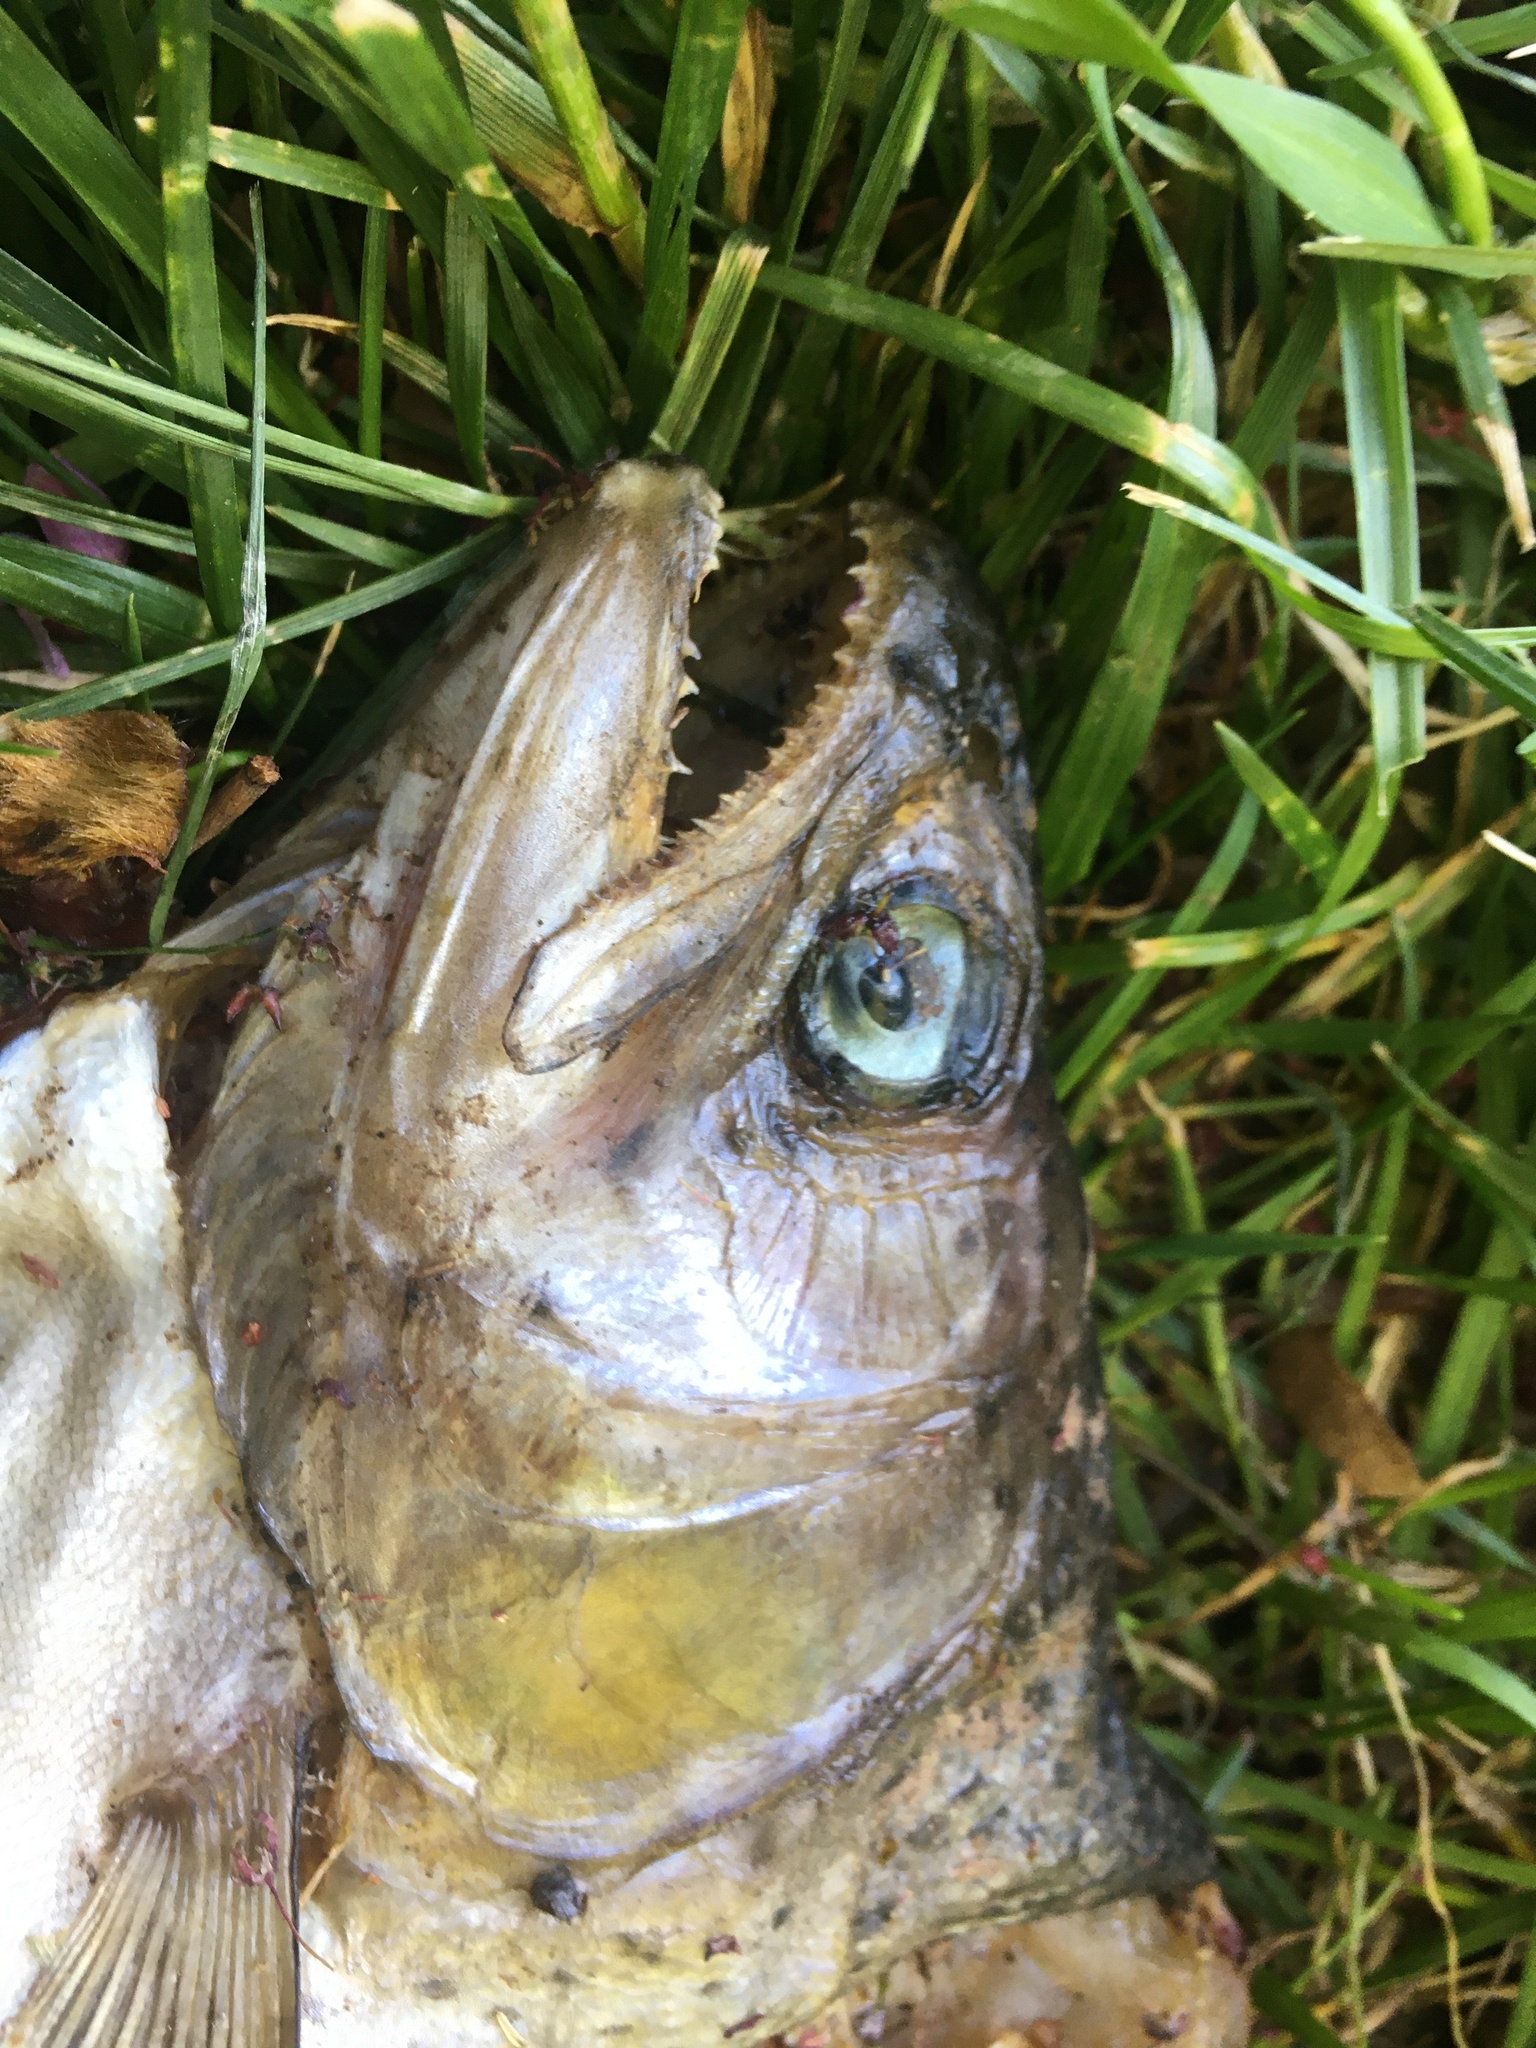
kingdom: Animalia
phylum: Chordata
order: Salmoniformes
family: Salmonidae
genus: Oncorhynchus
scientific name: Oncorhynchus mykiss
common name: Rainbow trout
